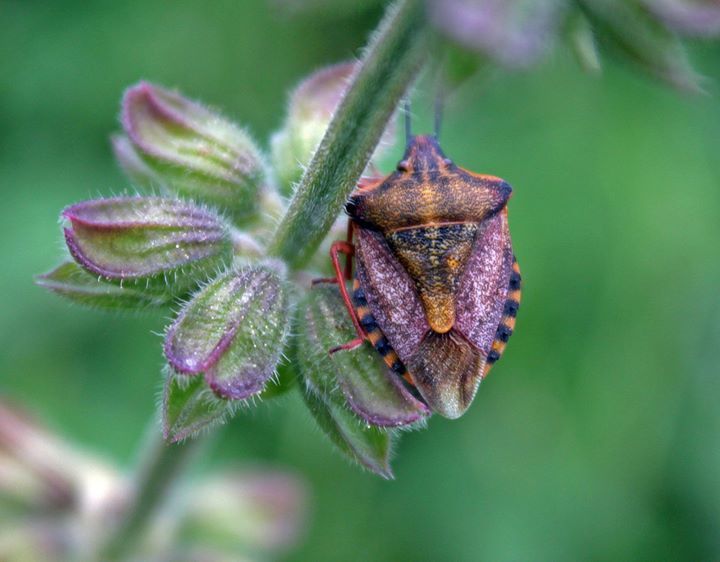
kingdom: Animalia
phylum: Arthropoda
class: Insecta
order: Hemiptera
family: Pentatomidae
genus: Carpocoris
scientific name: Carpocoris mediterraneus
